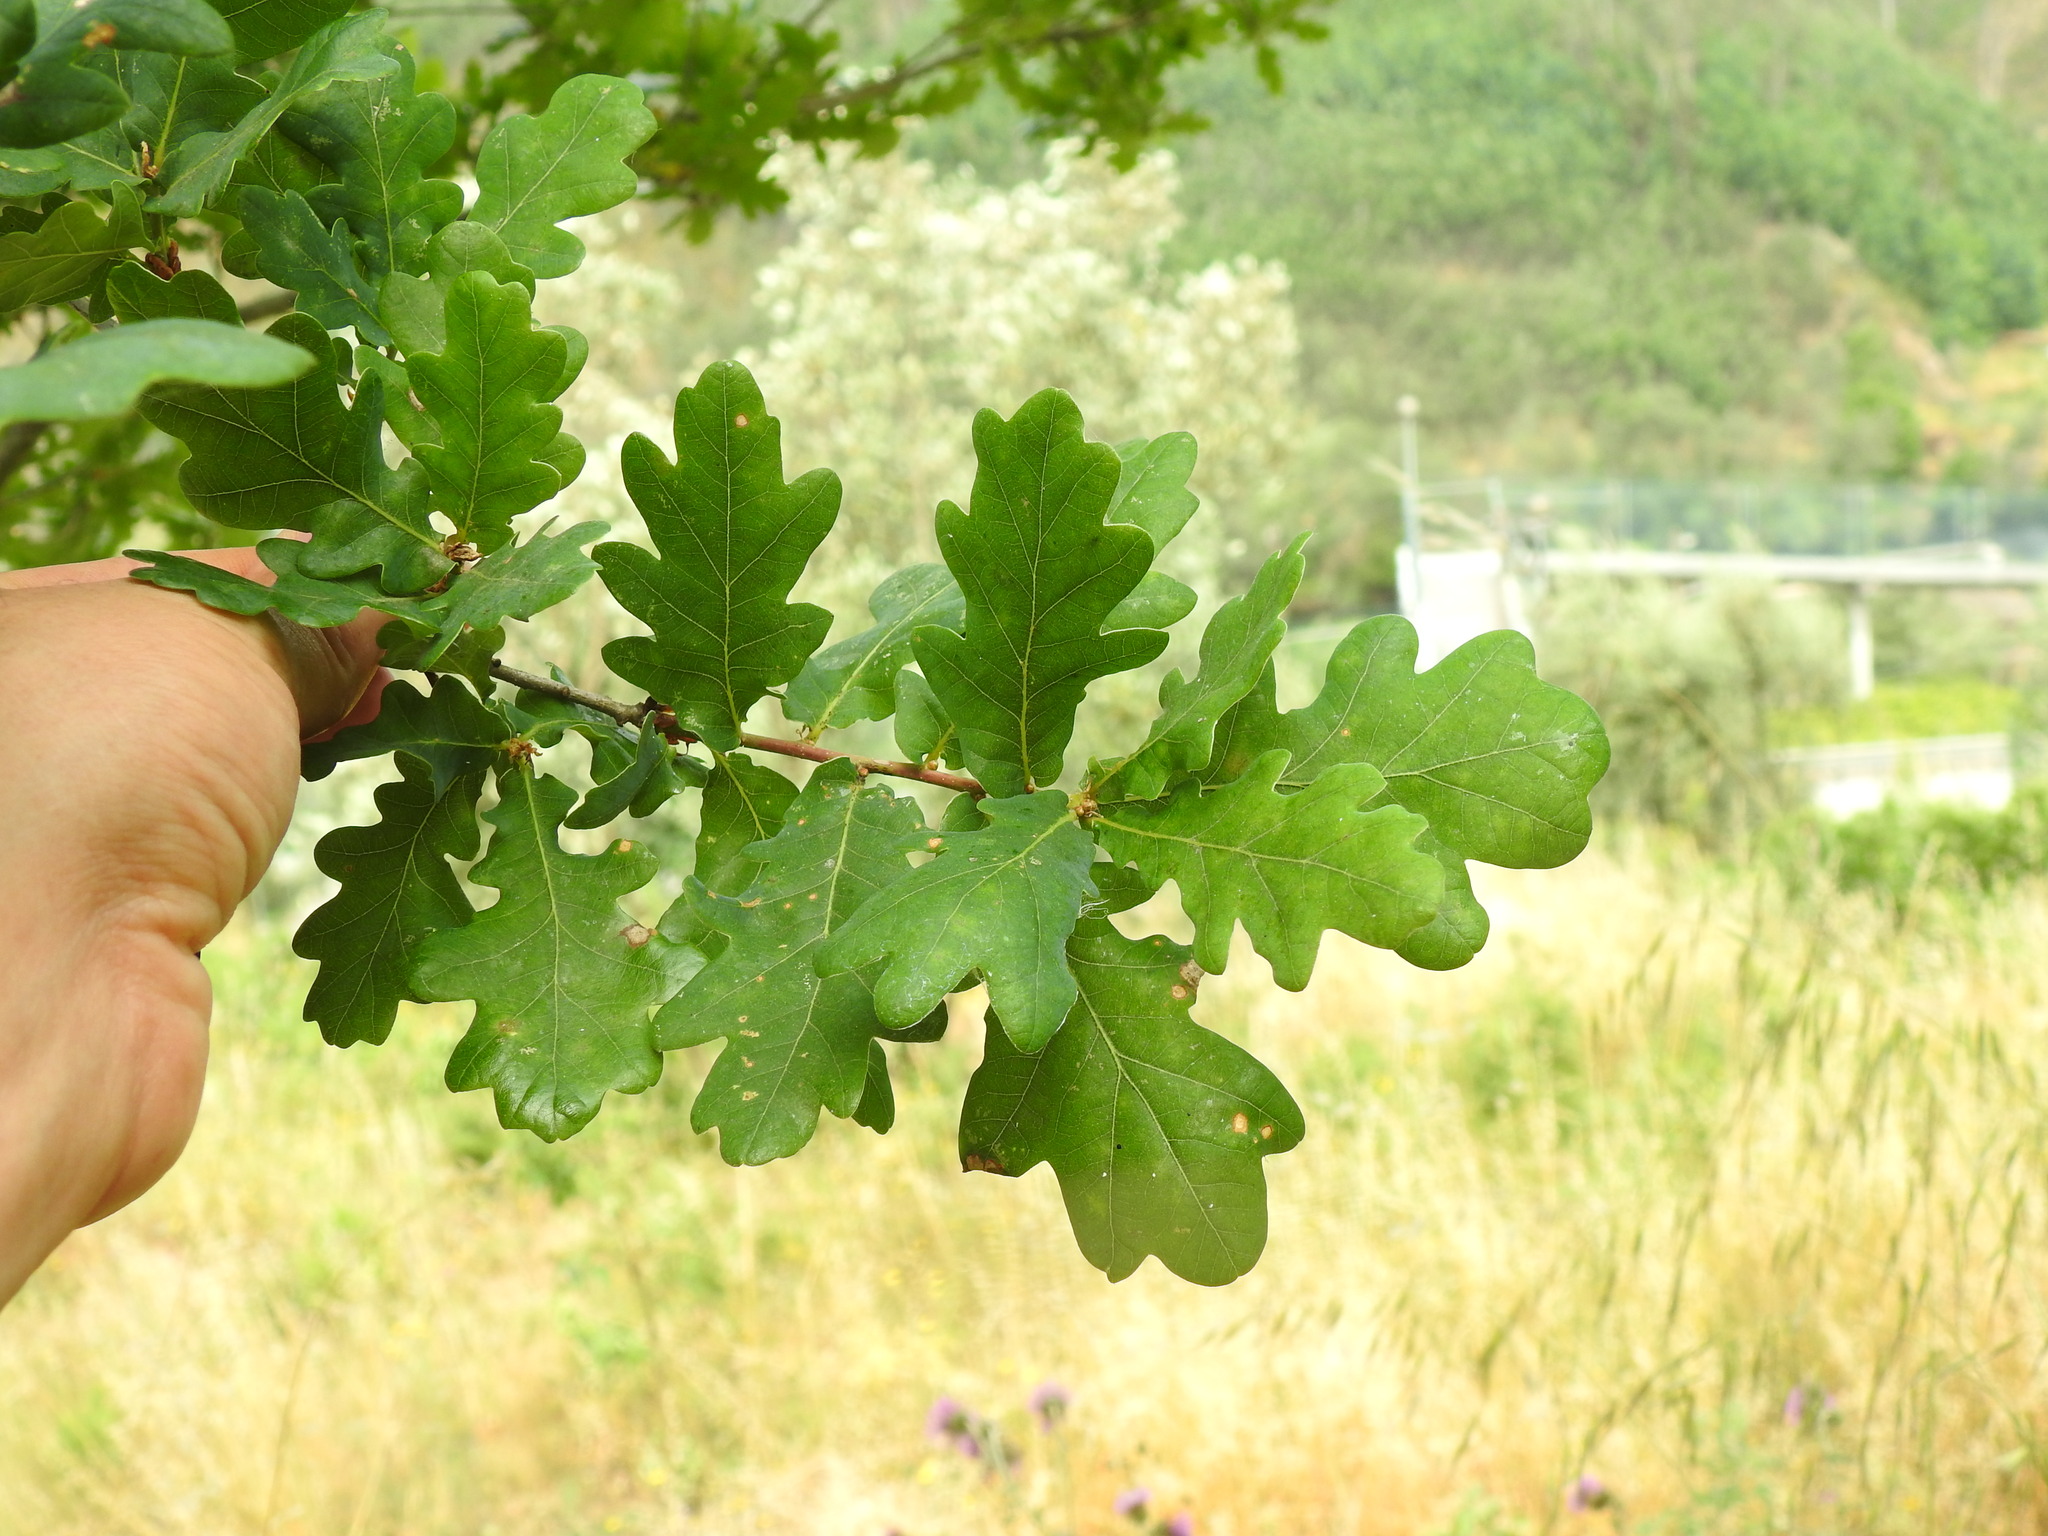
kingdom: Plantae
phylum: Tracheophyta
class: Magnoliopsida
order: Fagales
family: Fagaceae
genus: Quercus
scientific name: Quercus orocantabrica
